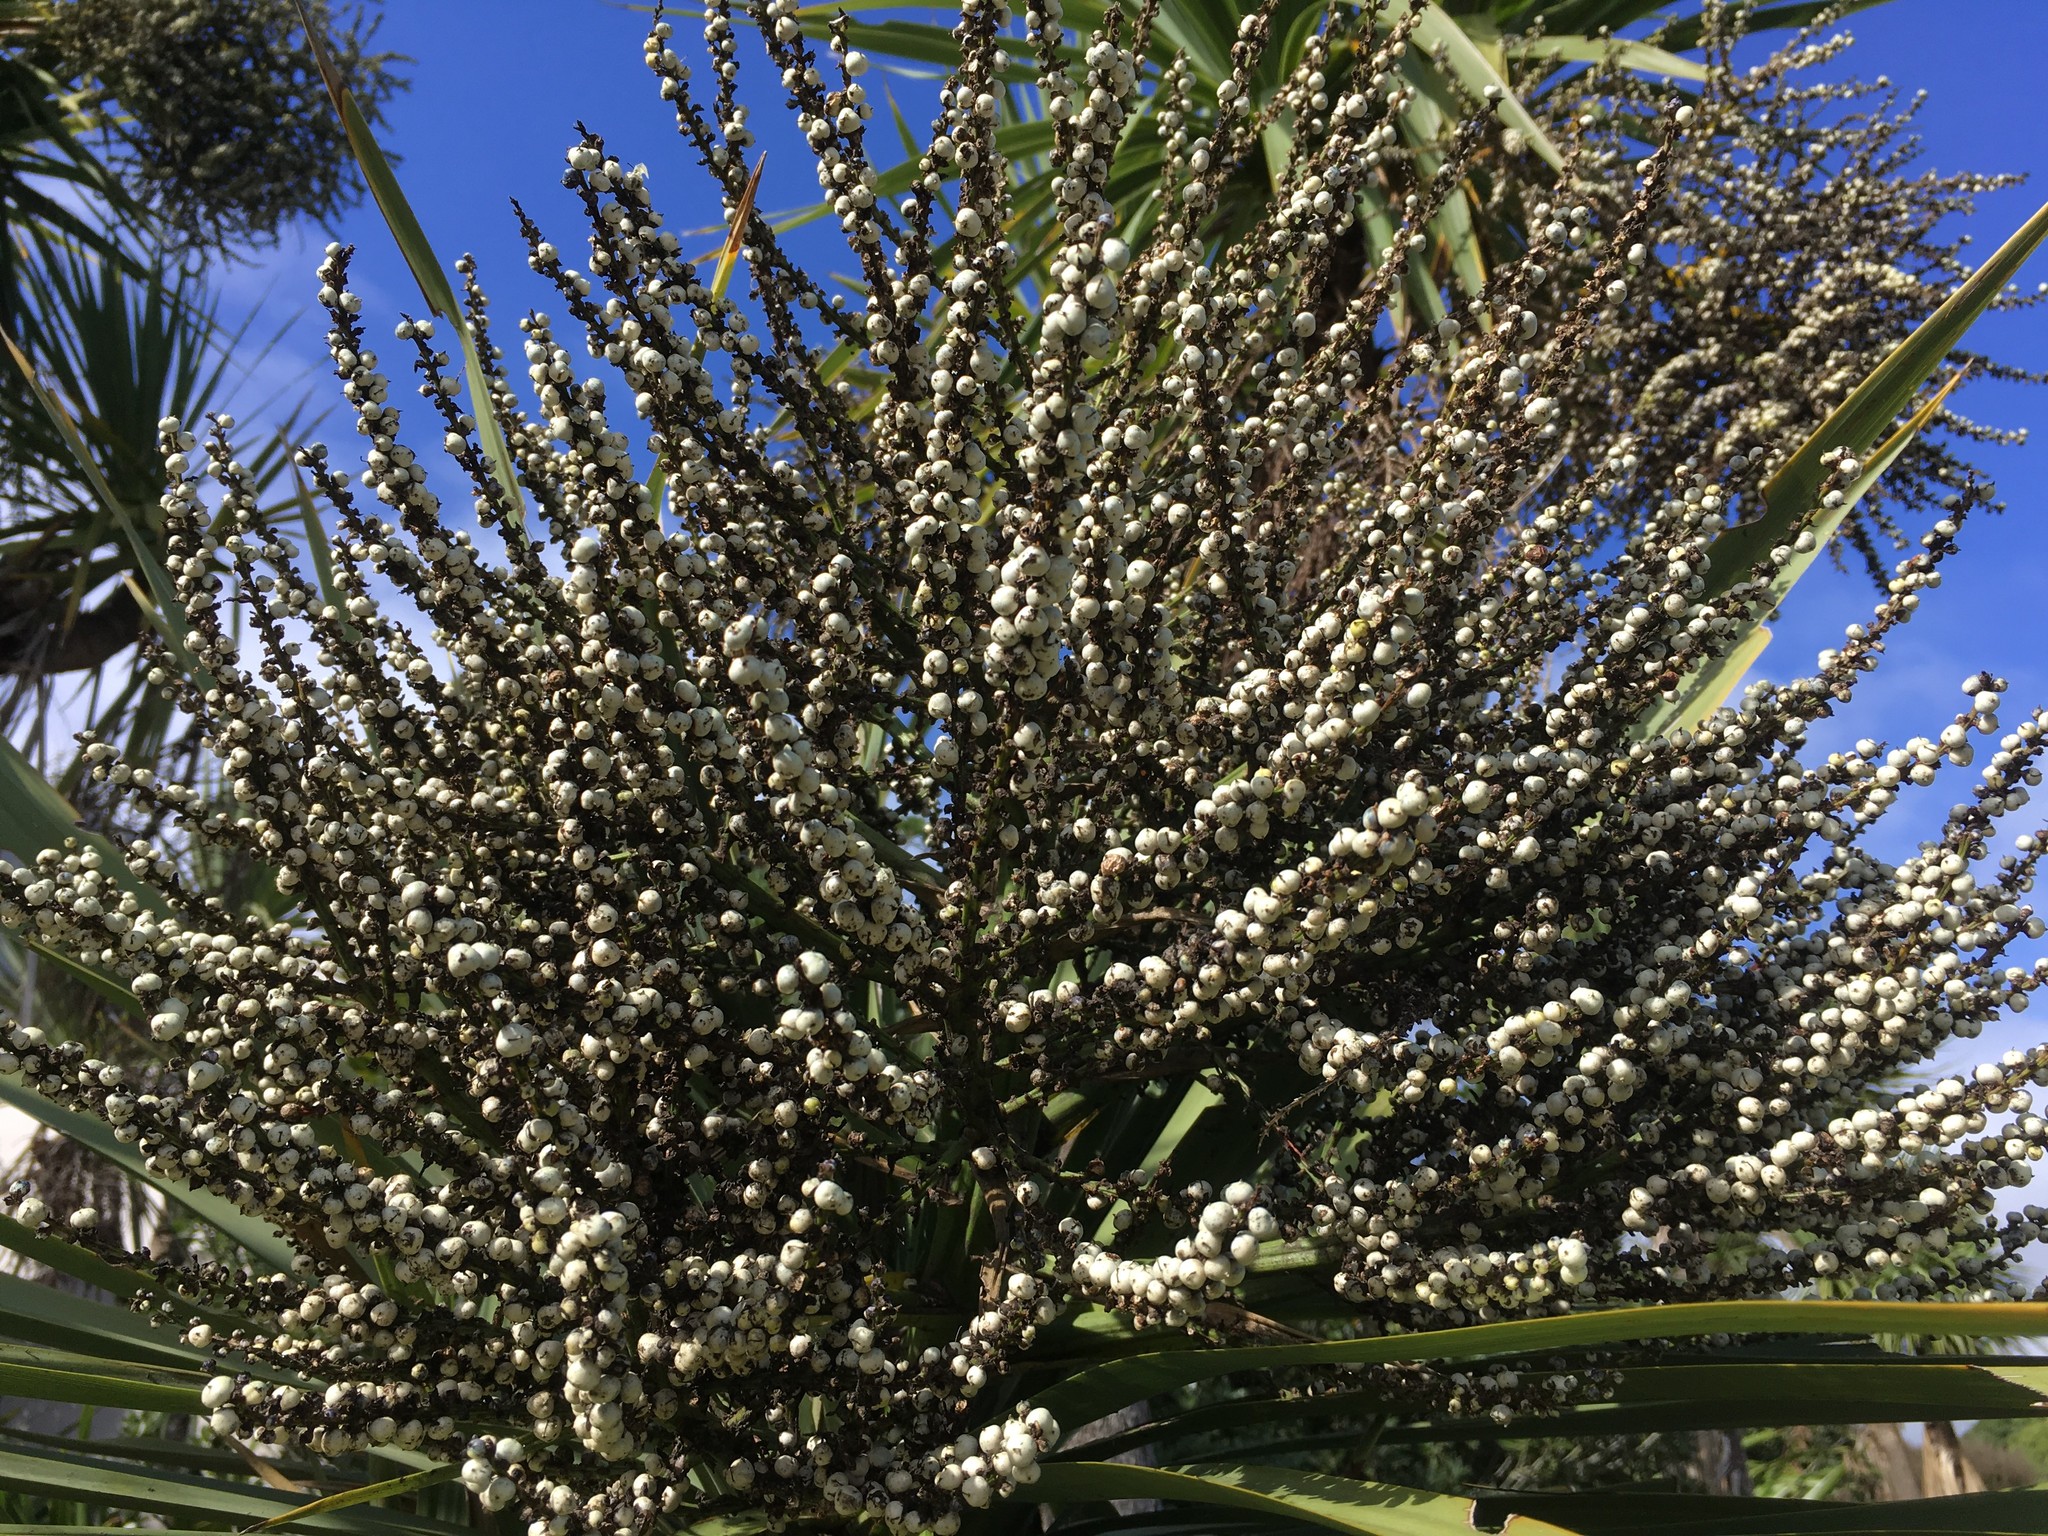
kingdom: Plantae
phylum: Tracheophyta
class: Liliopsida
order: Asparagales
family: Asparagaceae
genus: Cordyline
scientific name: Cordyline australis
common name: Cabbage-palm
